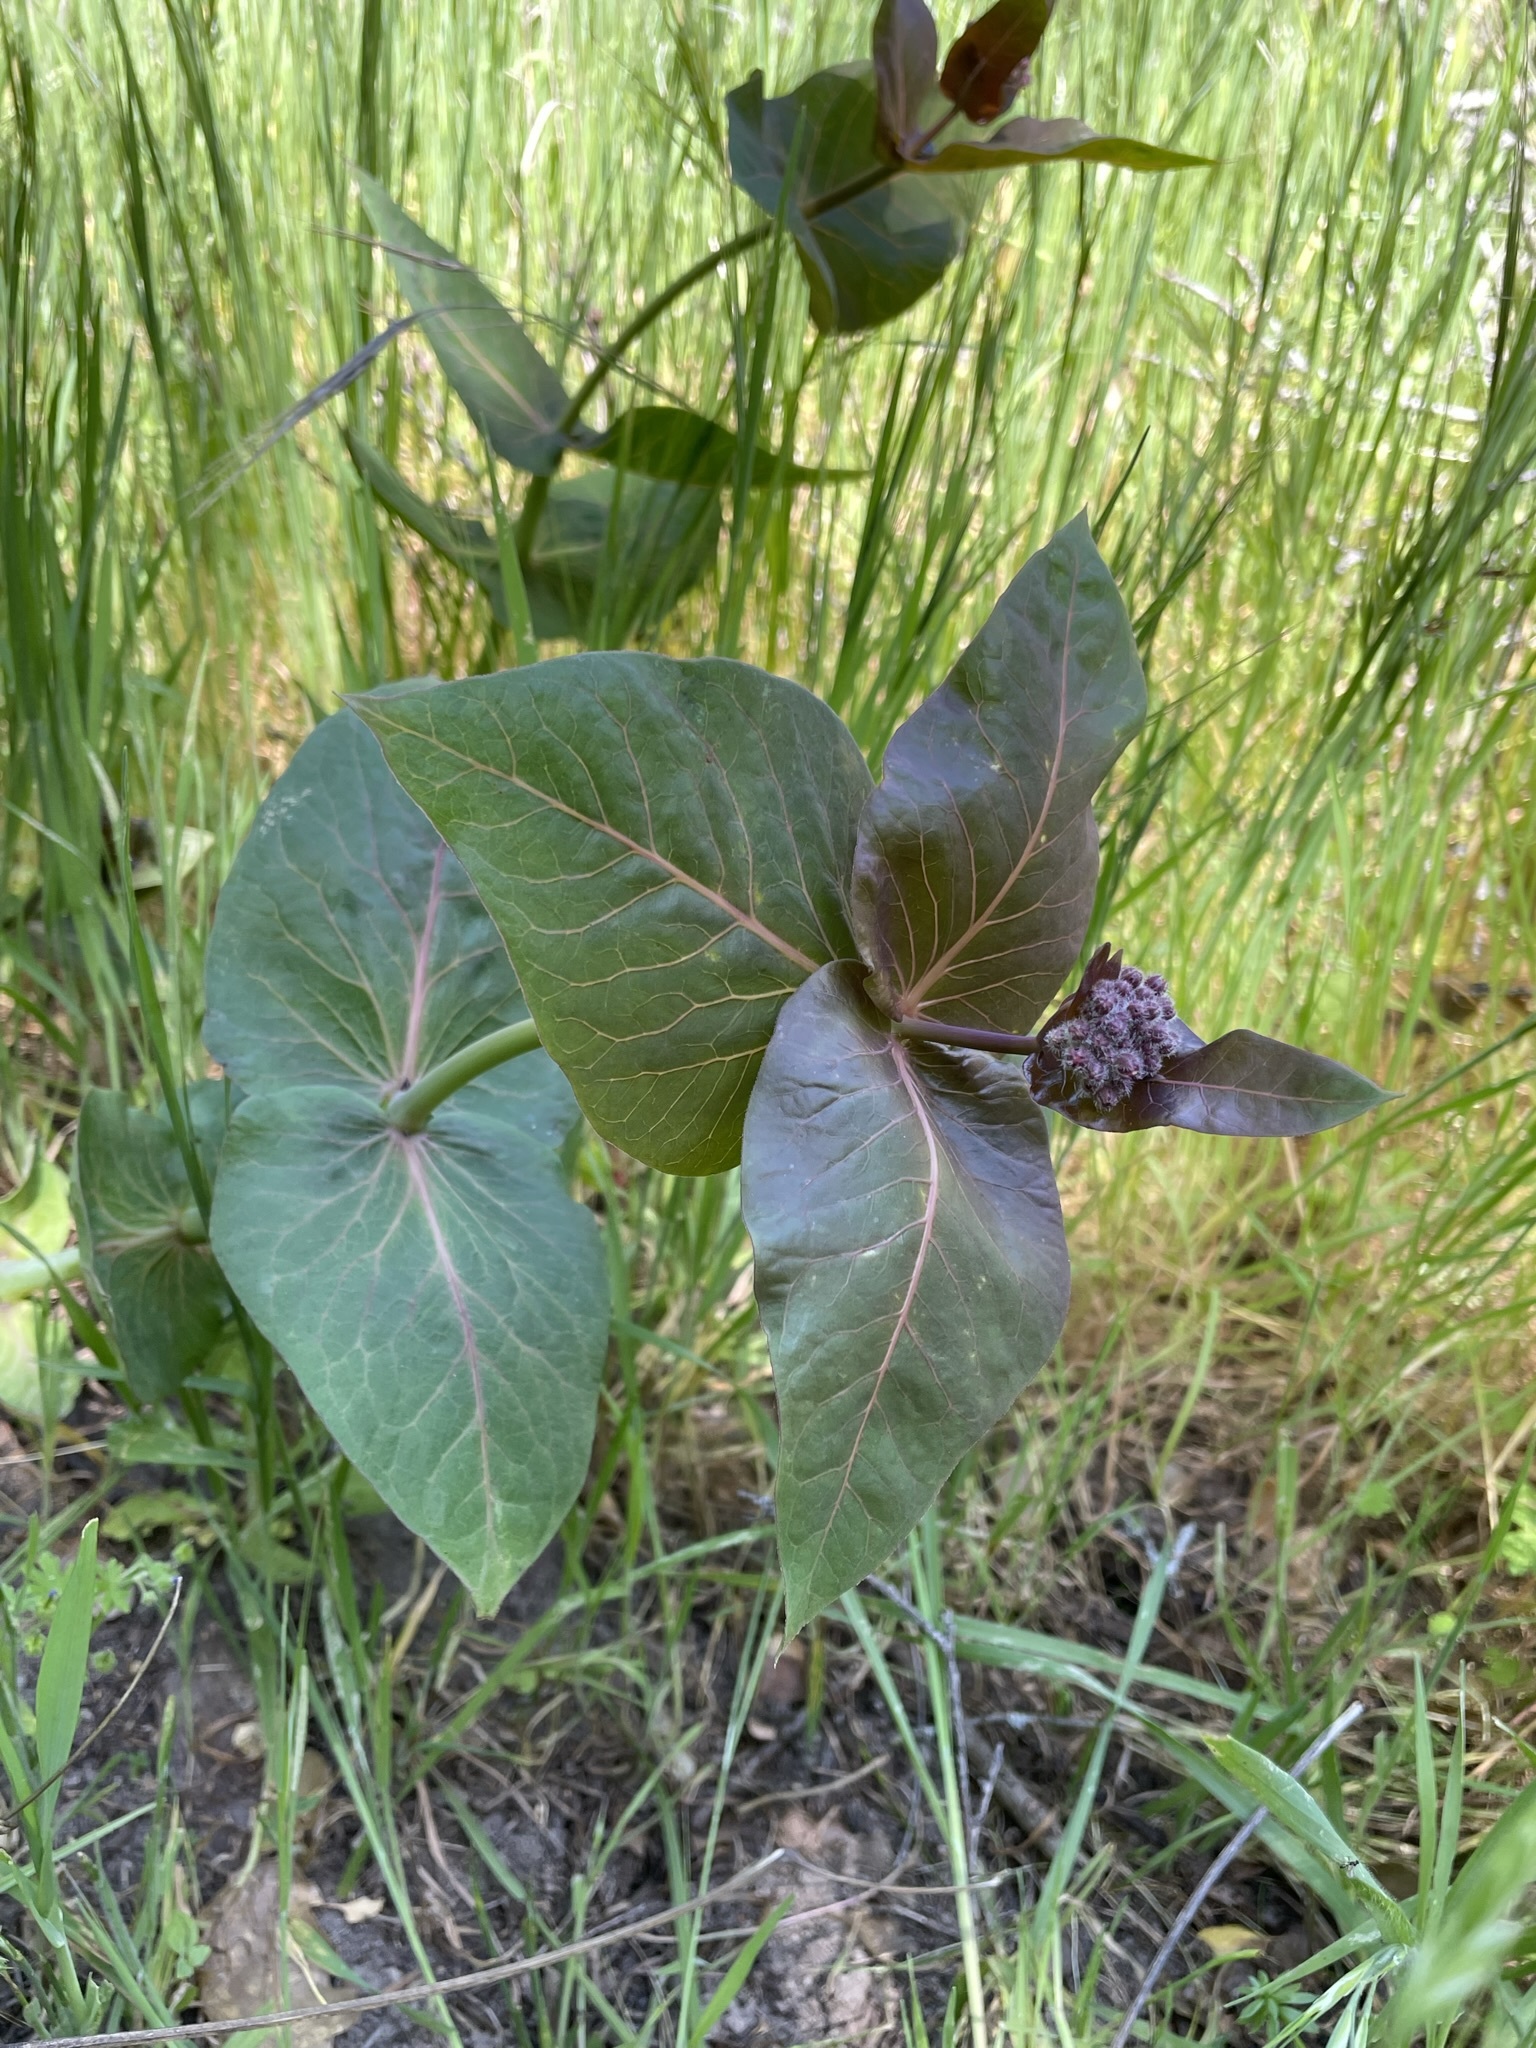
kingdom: Plantae
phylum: Tracheophyta
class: Magnoliopsida
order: Gentianales
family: Apocynaceae
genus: Asclepias
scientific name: Asclepias cordifolia
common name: Purple milkweed
